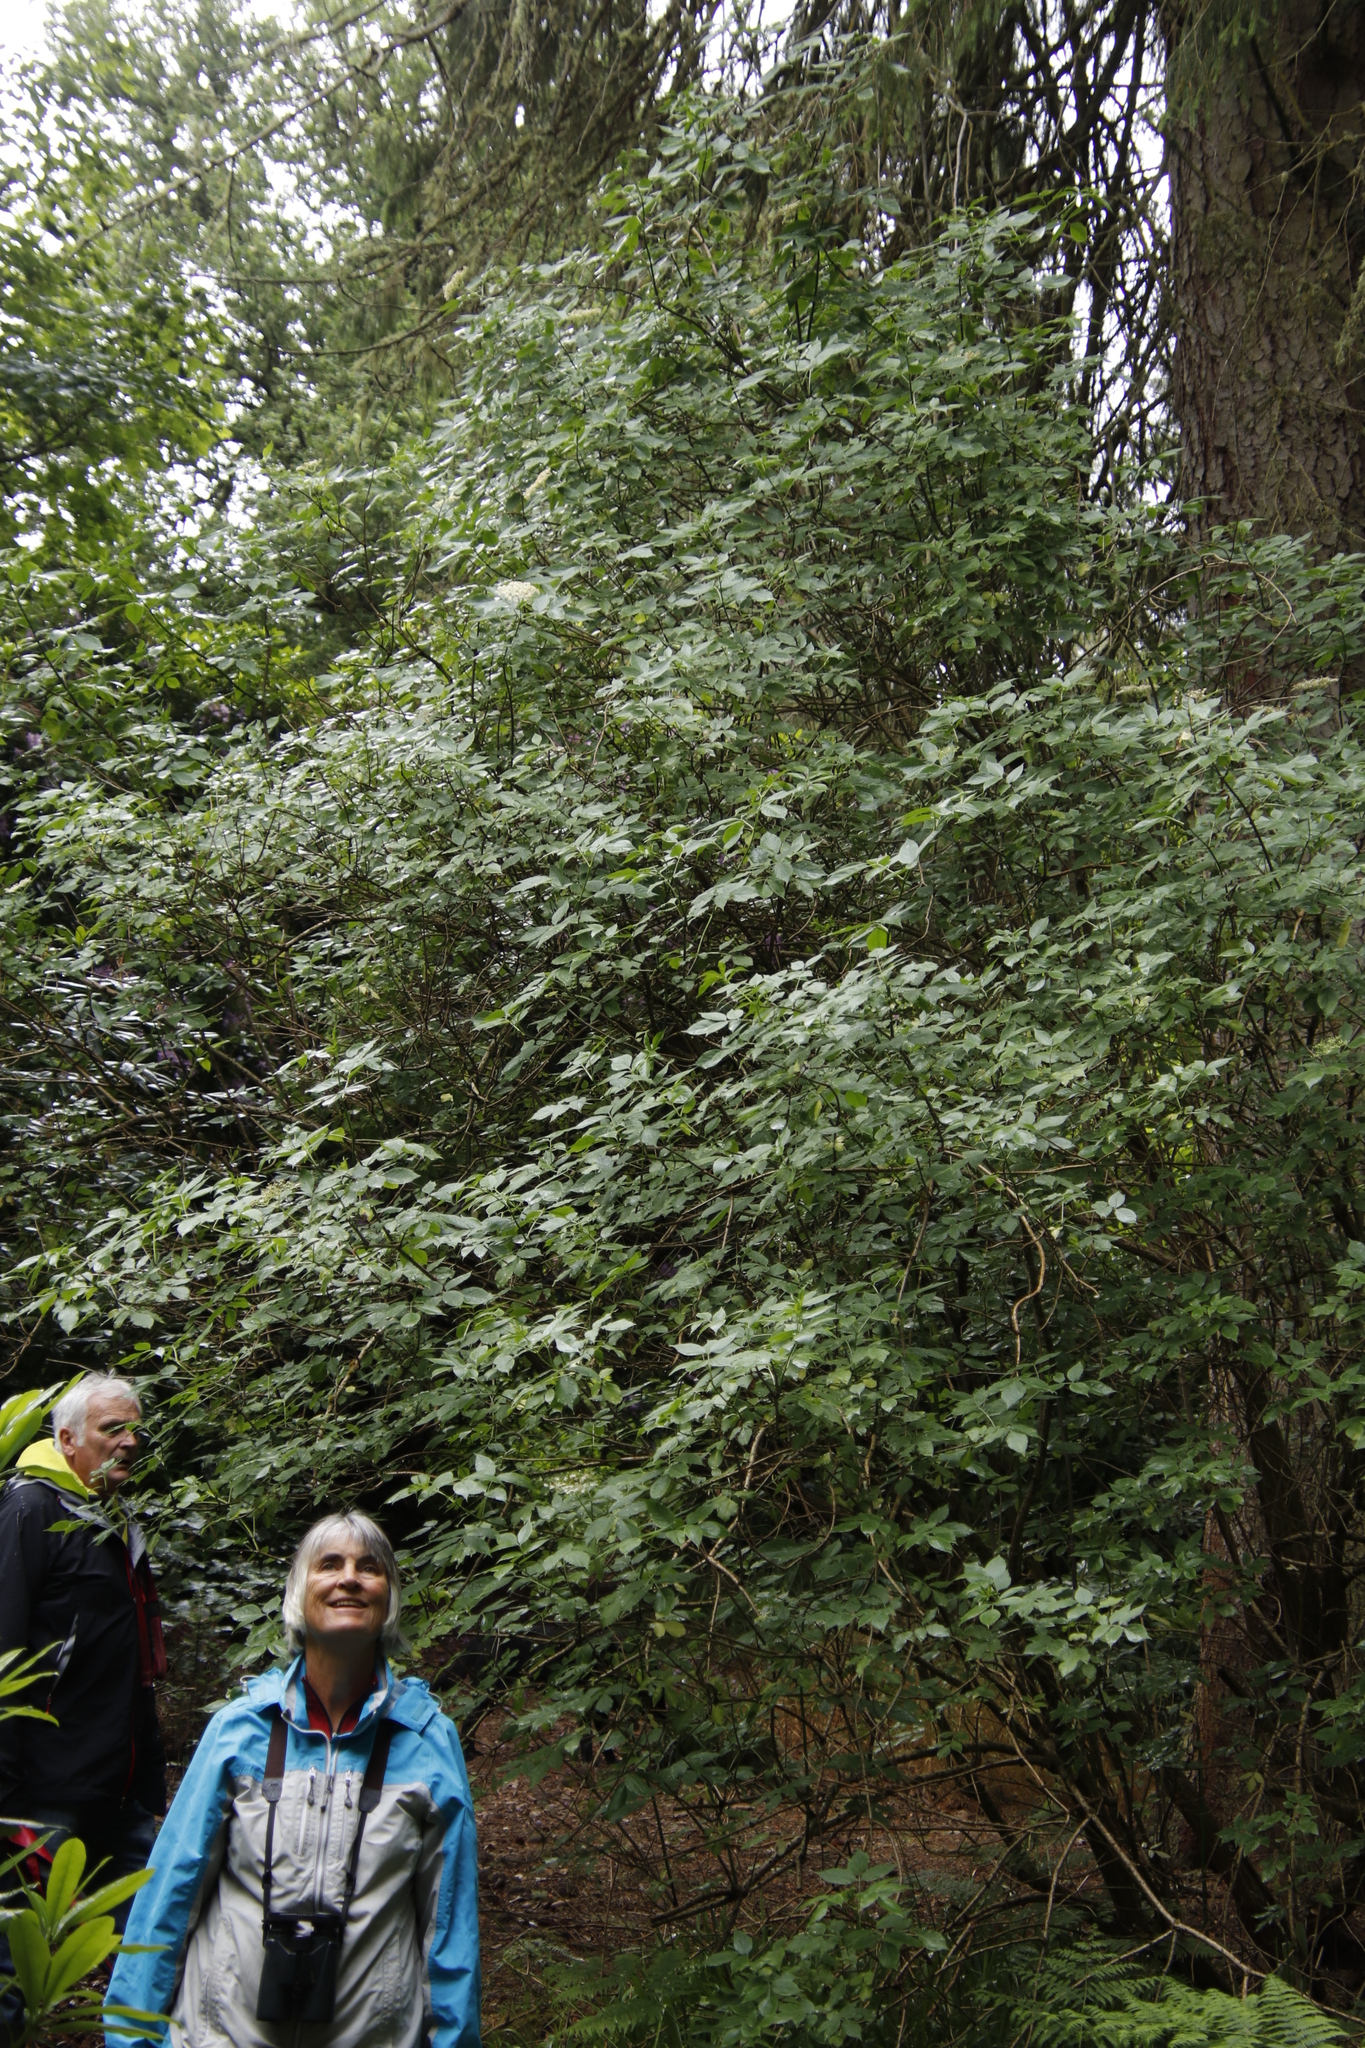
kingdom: Plantae
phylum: Tracheophyta
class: Magnoliopsida
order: Dipsacales
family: Viburnaceae
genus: Sambucus
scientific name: Sambucus nigra
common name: Elder
